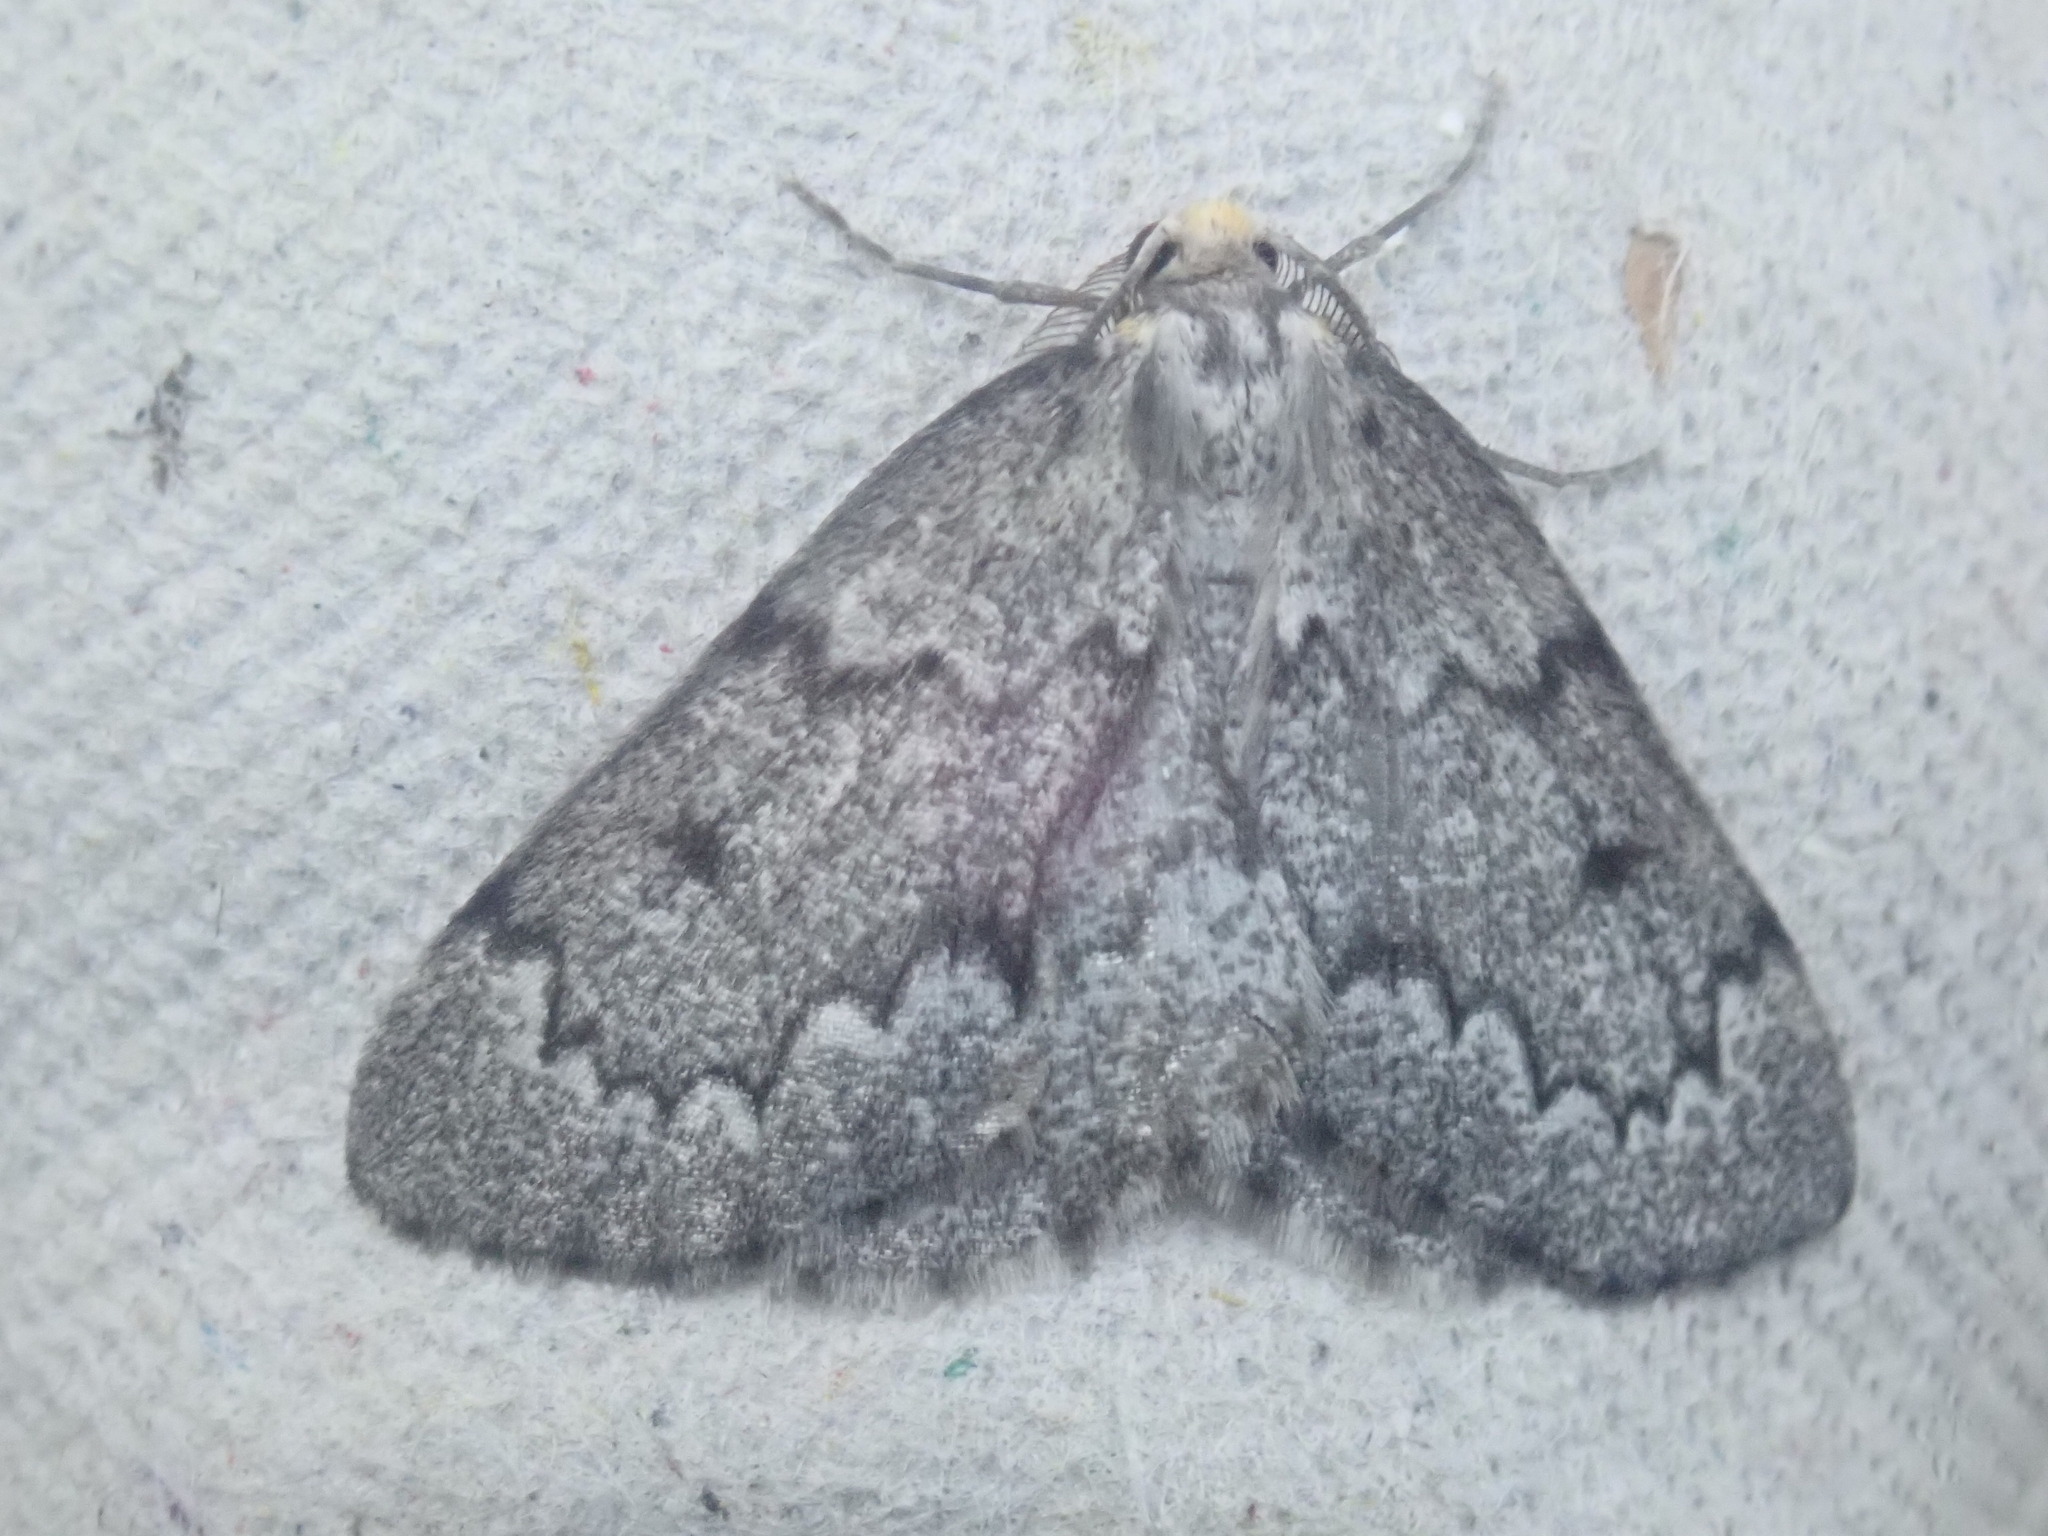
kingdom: Animalia
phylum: Arthropoda
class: Insecta
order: Lepidoptera
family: Geometridae
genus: Nepytia
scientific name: Nepytia canosaria
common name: False hemlock looper
